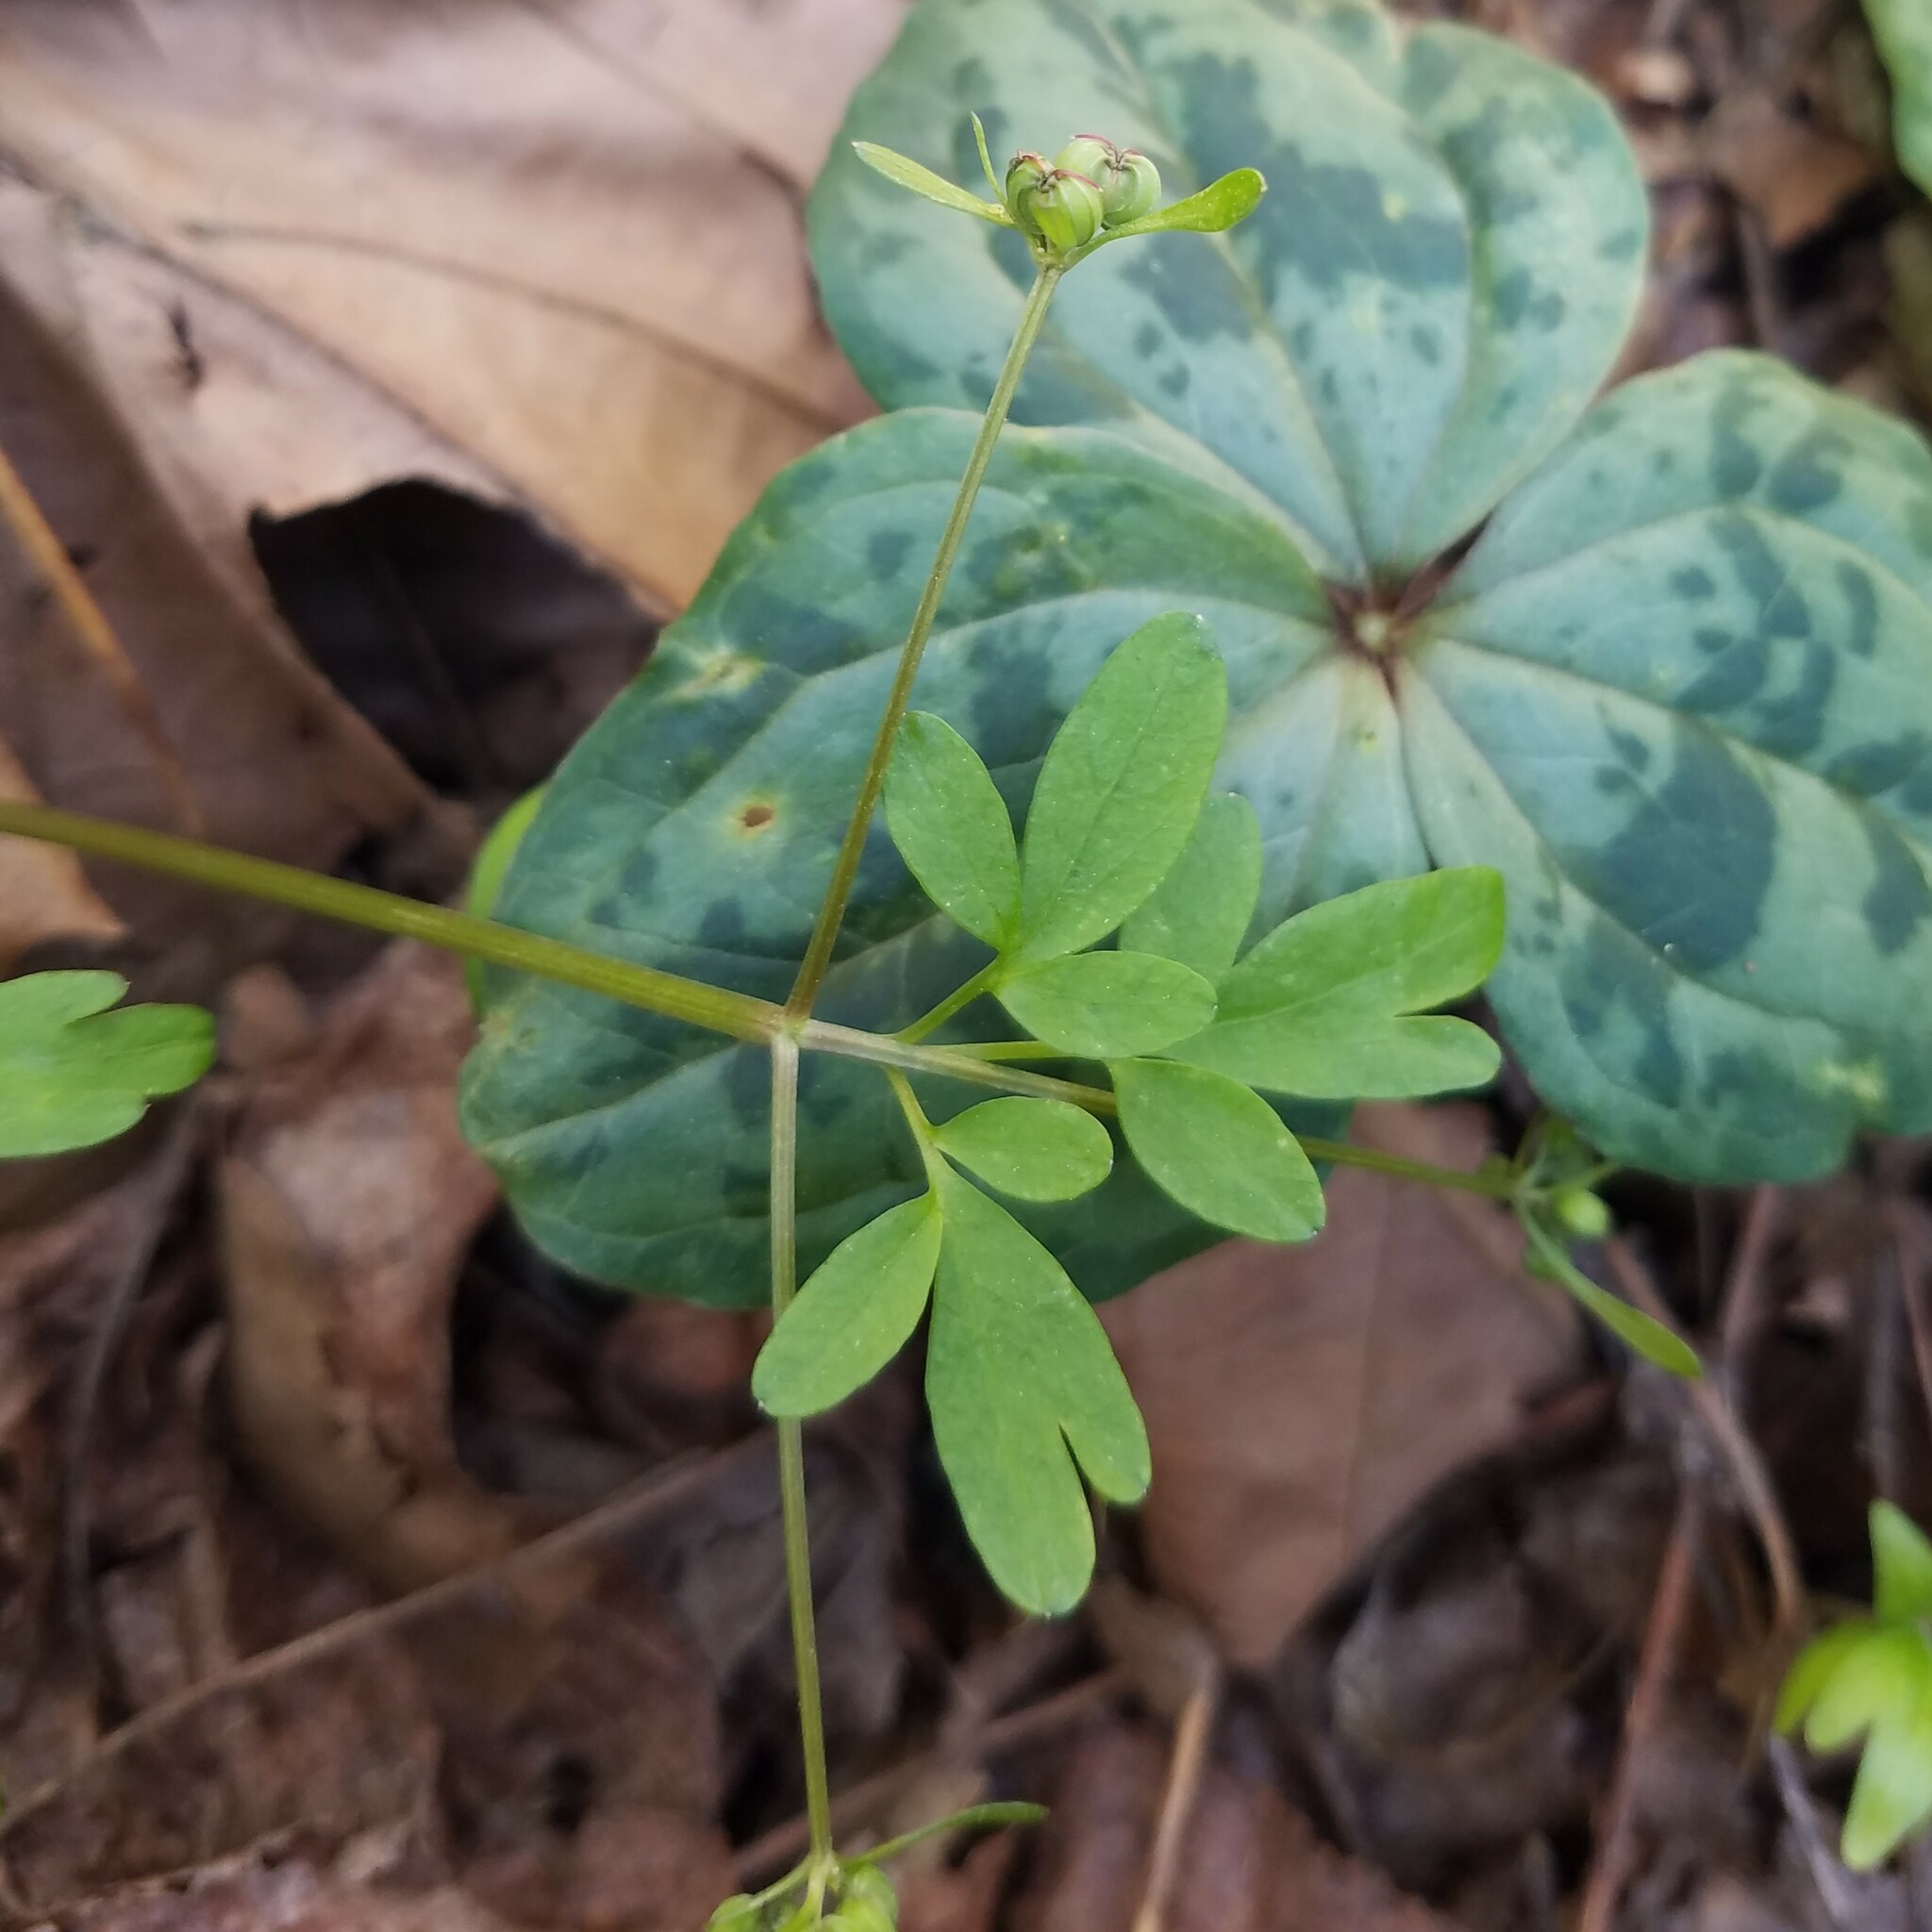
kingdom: Plantae
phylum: Tracheophyta
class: Magnoliopsida
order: Apiales
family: Apiaceae
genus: Erigenia
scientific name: Erigenia bulbosa
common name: Pepper-and-salt
